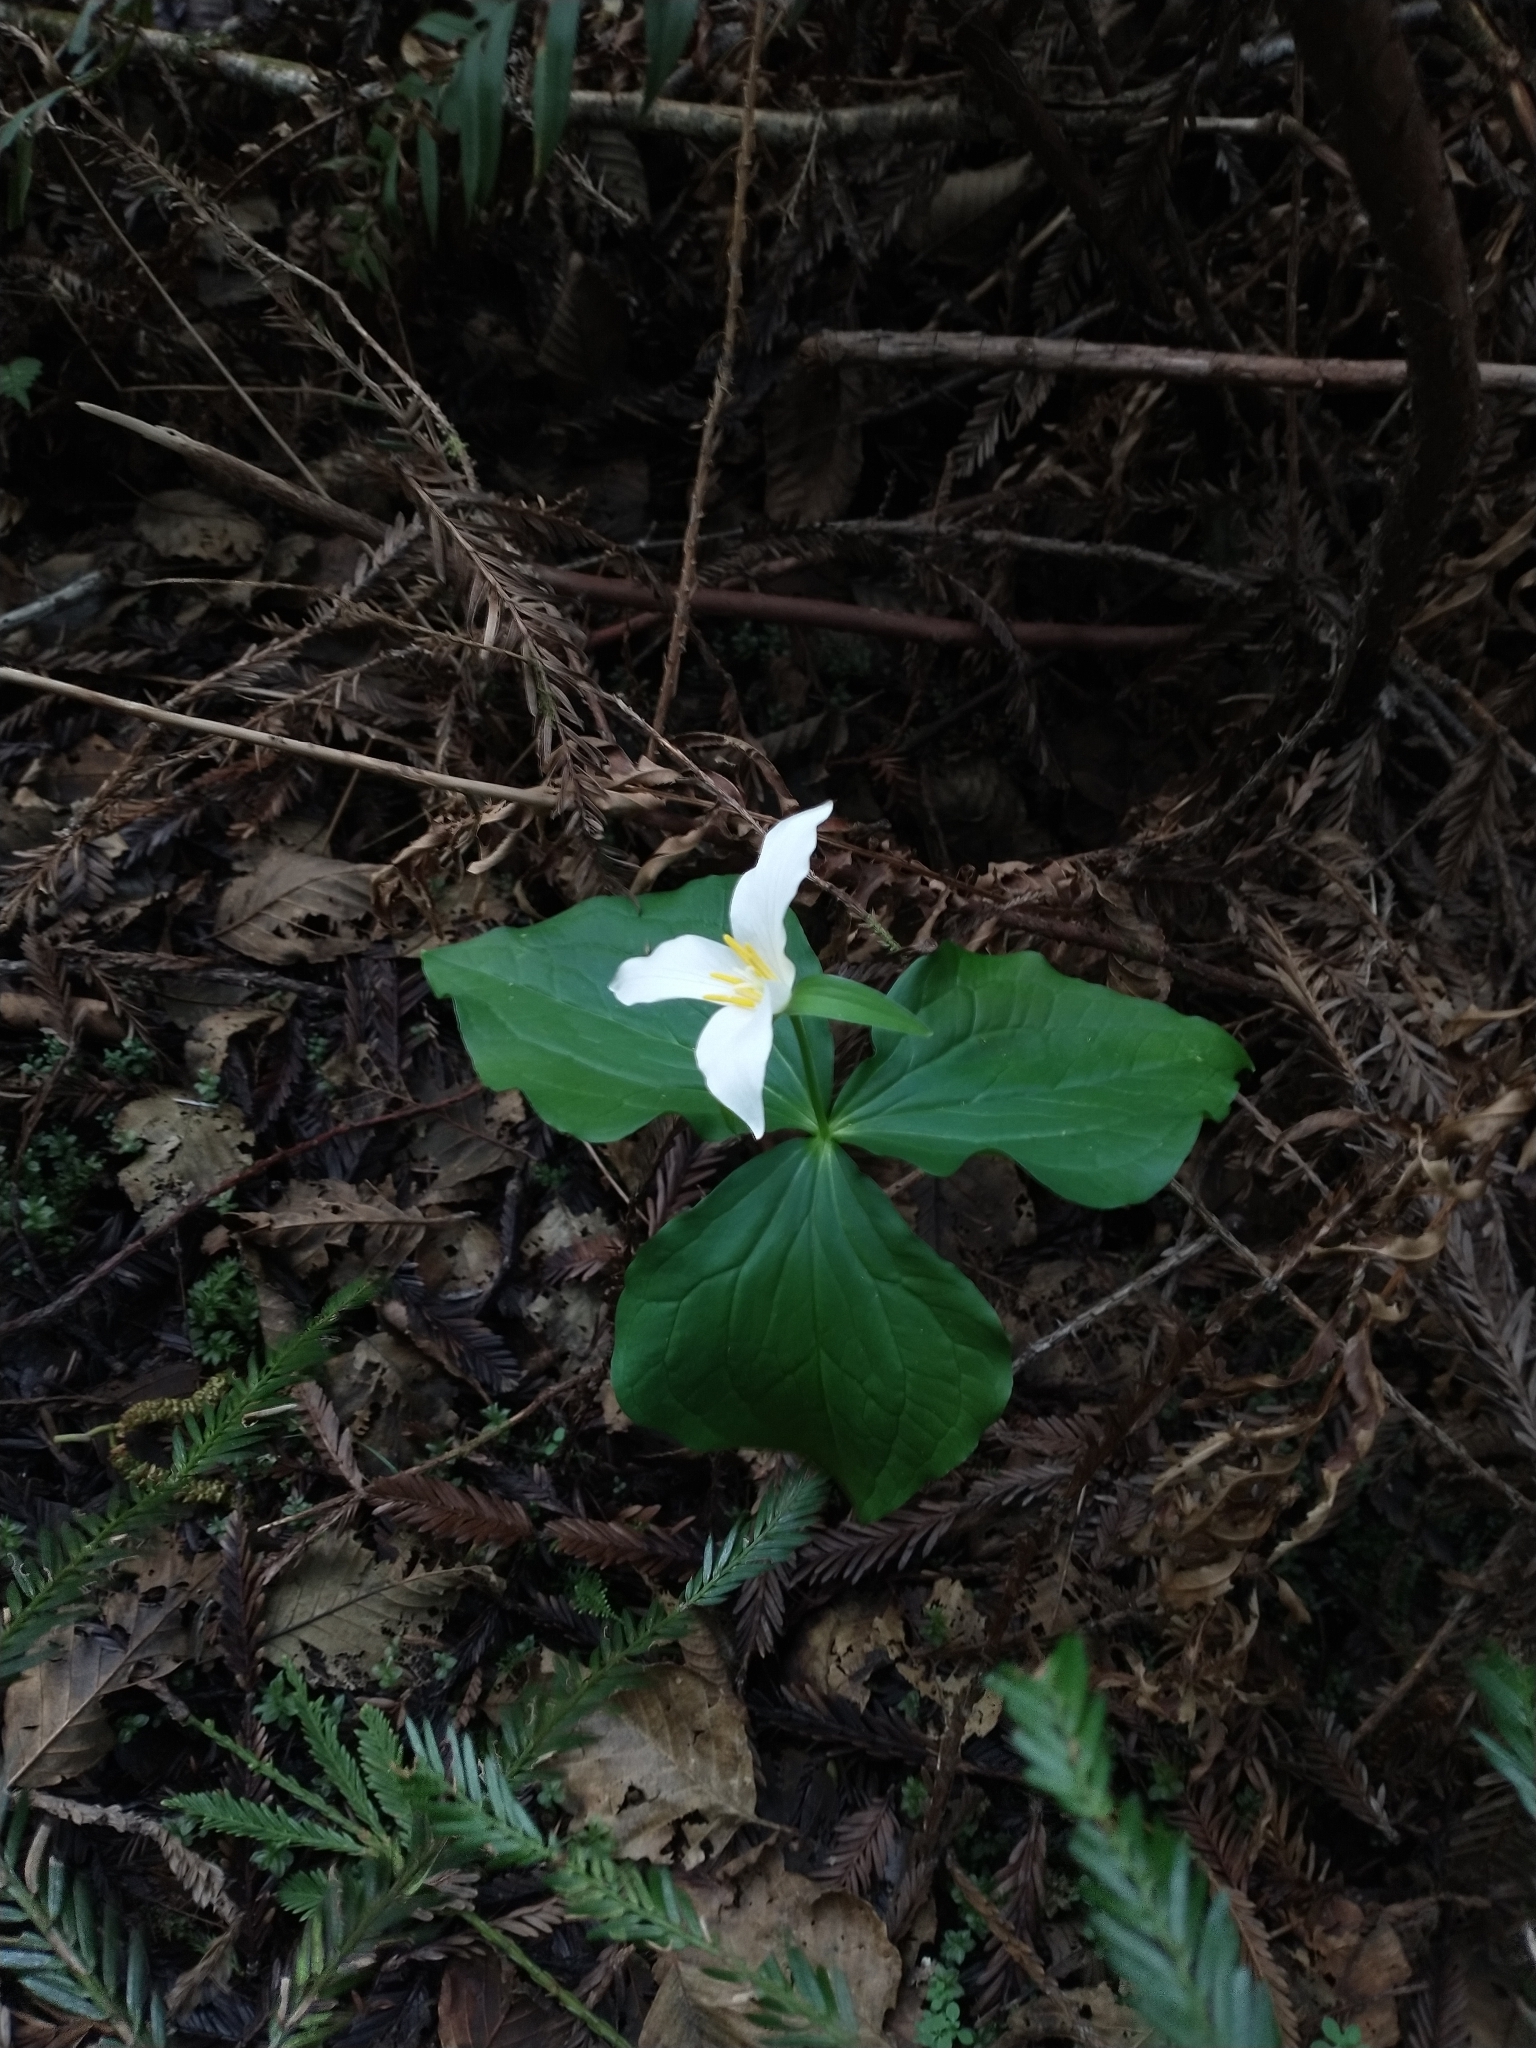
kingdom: Plantae
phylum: Tracheophyta
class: Liliopsida
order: Liliales
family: Melanthiaceae
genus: Trillium
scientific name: Trillium ovatum
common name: Pacific trillium
